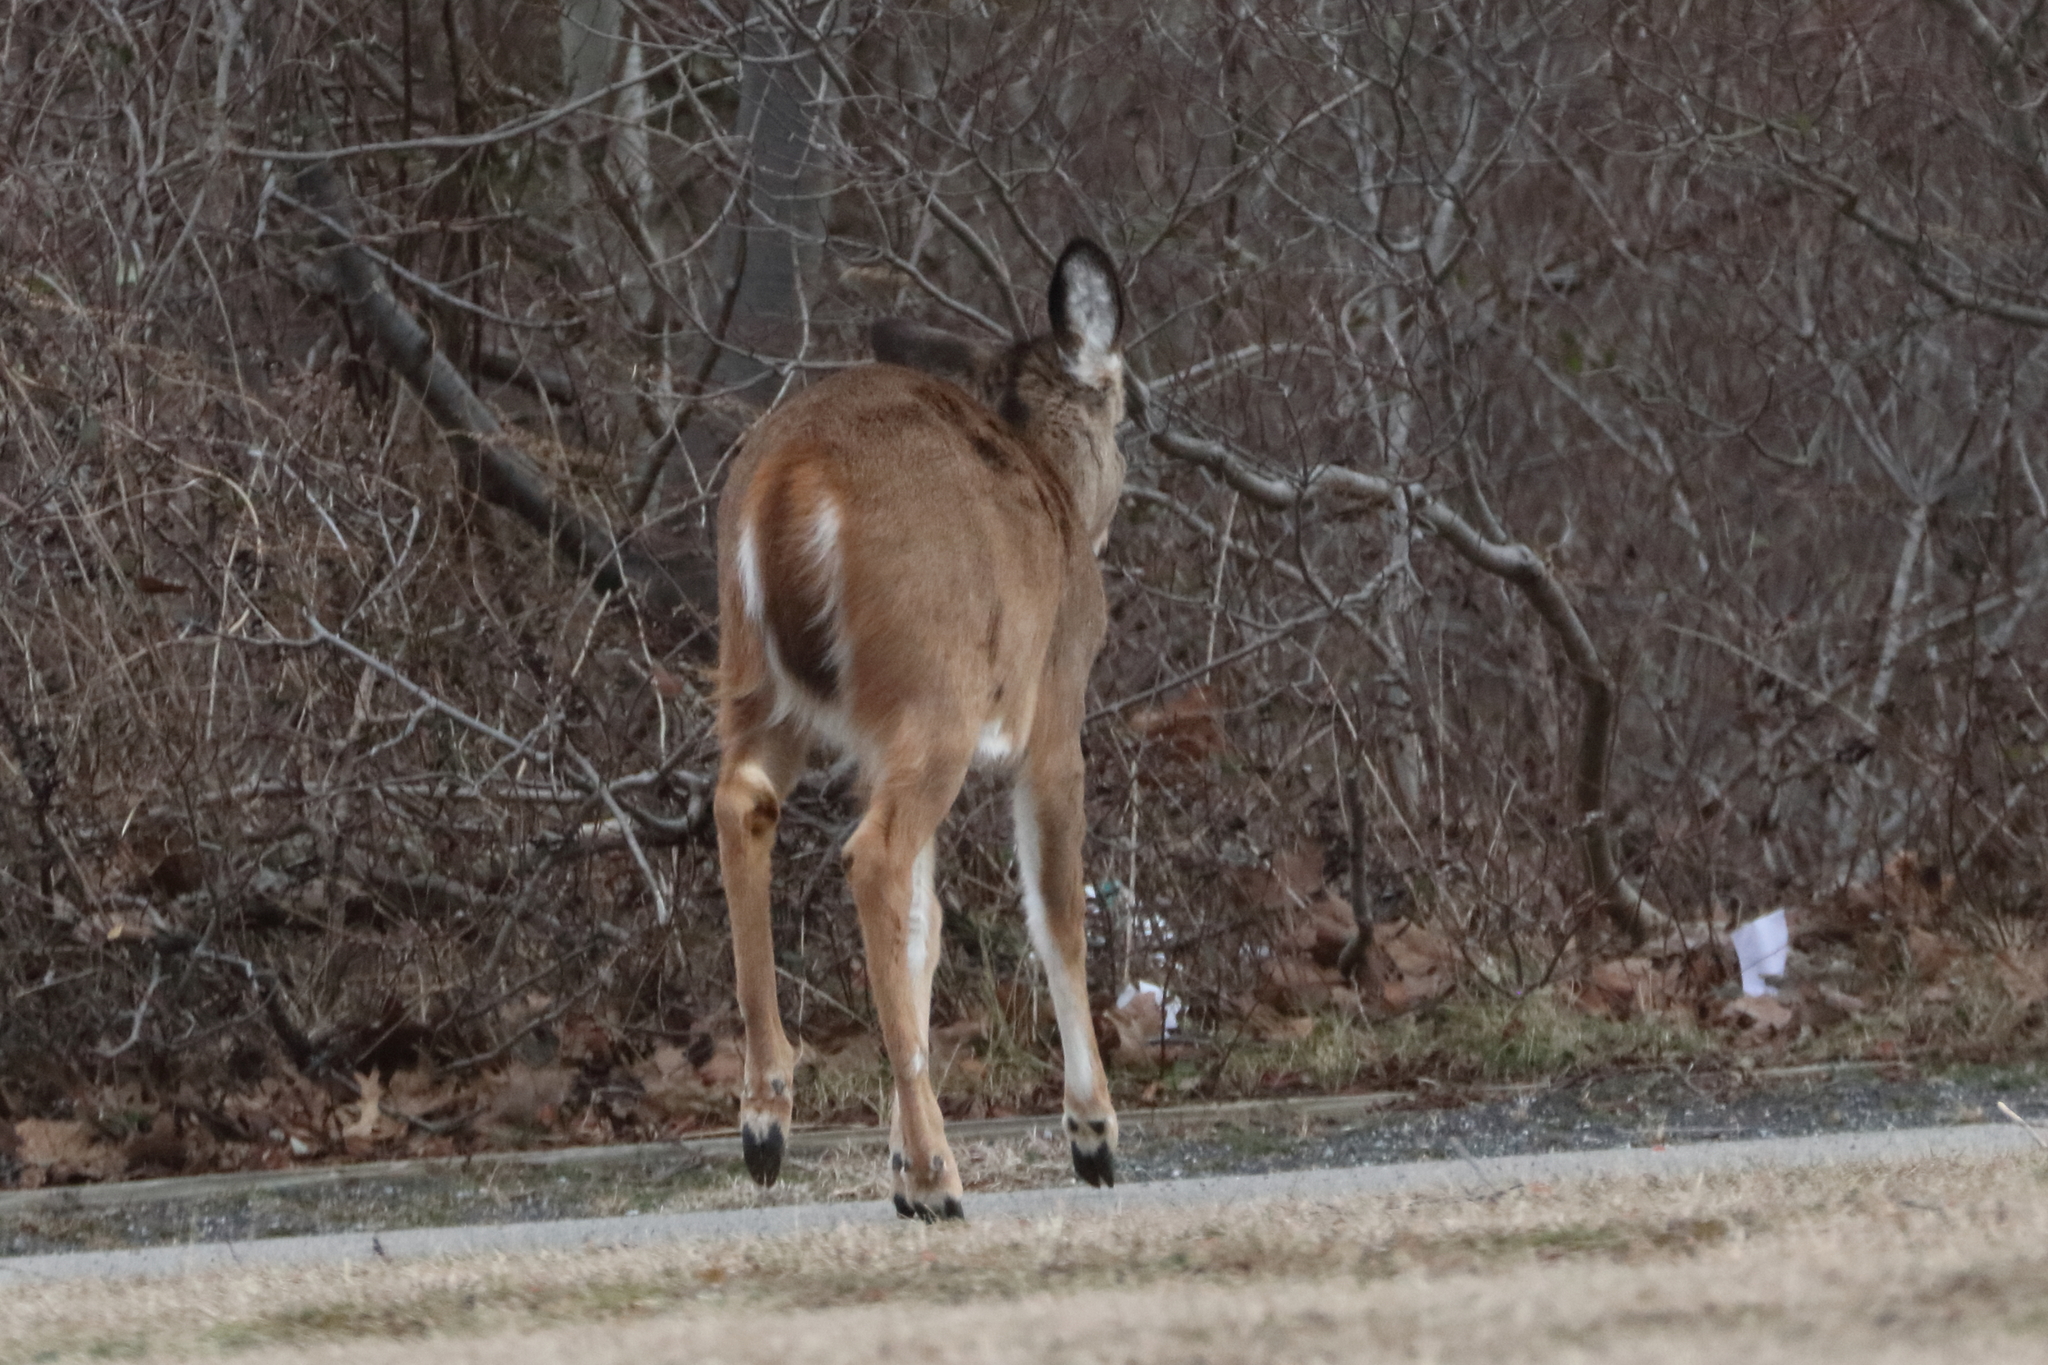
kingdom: Animalia
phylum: Chordata
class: Mammalia
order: Artiodactyla
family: Cervidae
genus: Odocoileus
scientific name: Odocoileus virginianus
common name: White-tailed deer
